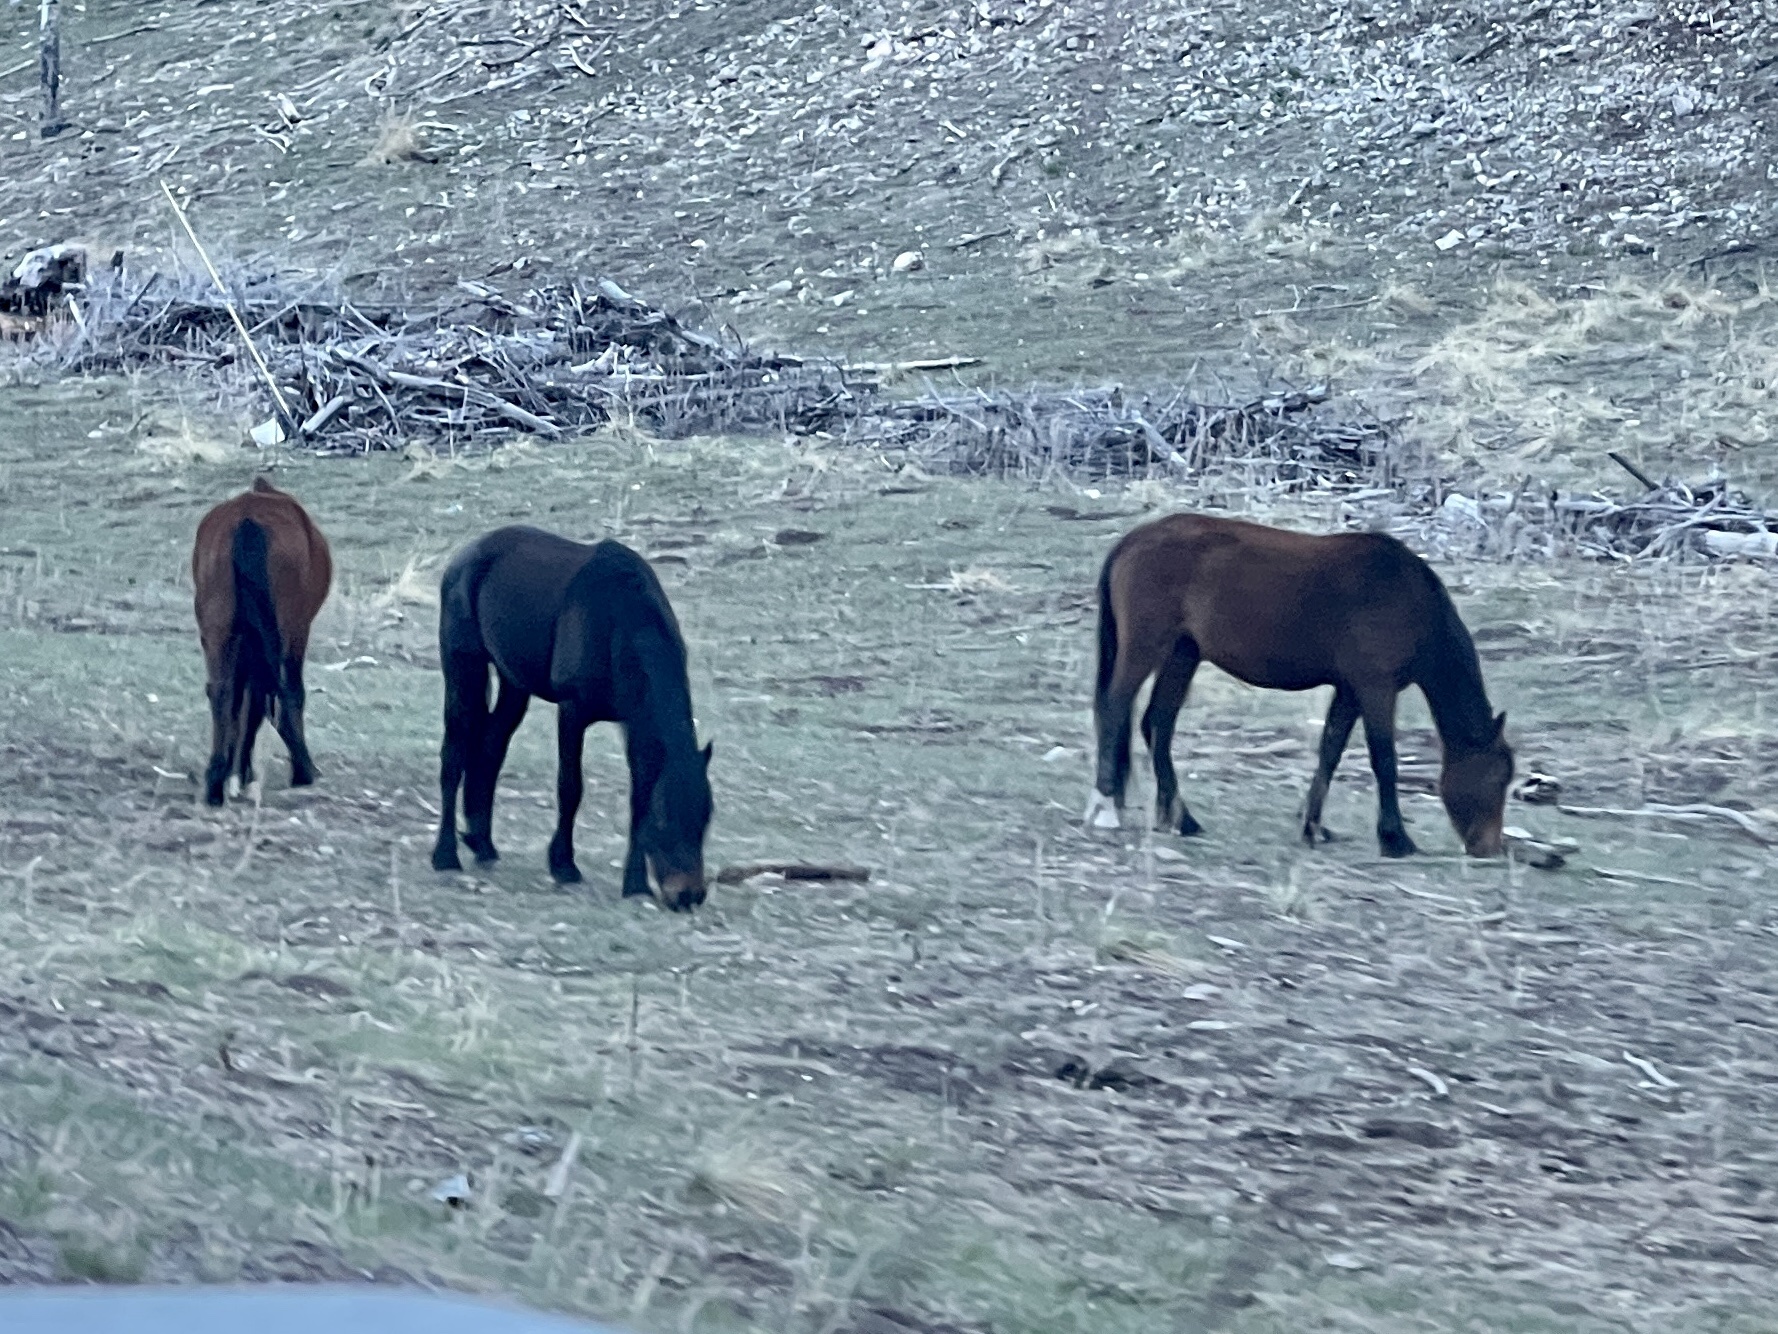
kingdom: Animalia
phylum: Chordata
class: Mammalia
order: Perissodactyla
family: Equidae
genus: Equus
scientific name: Equus caballus
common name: Horse
